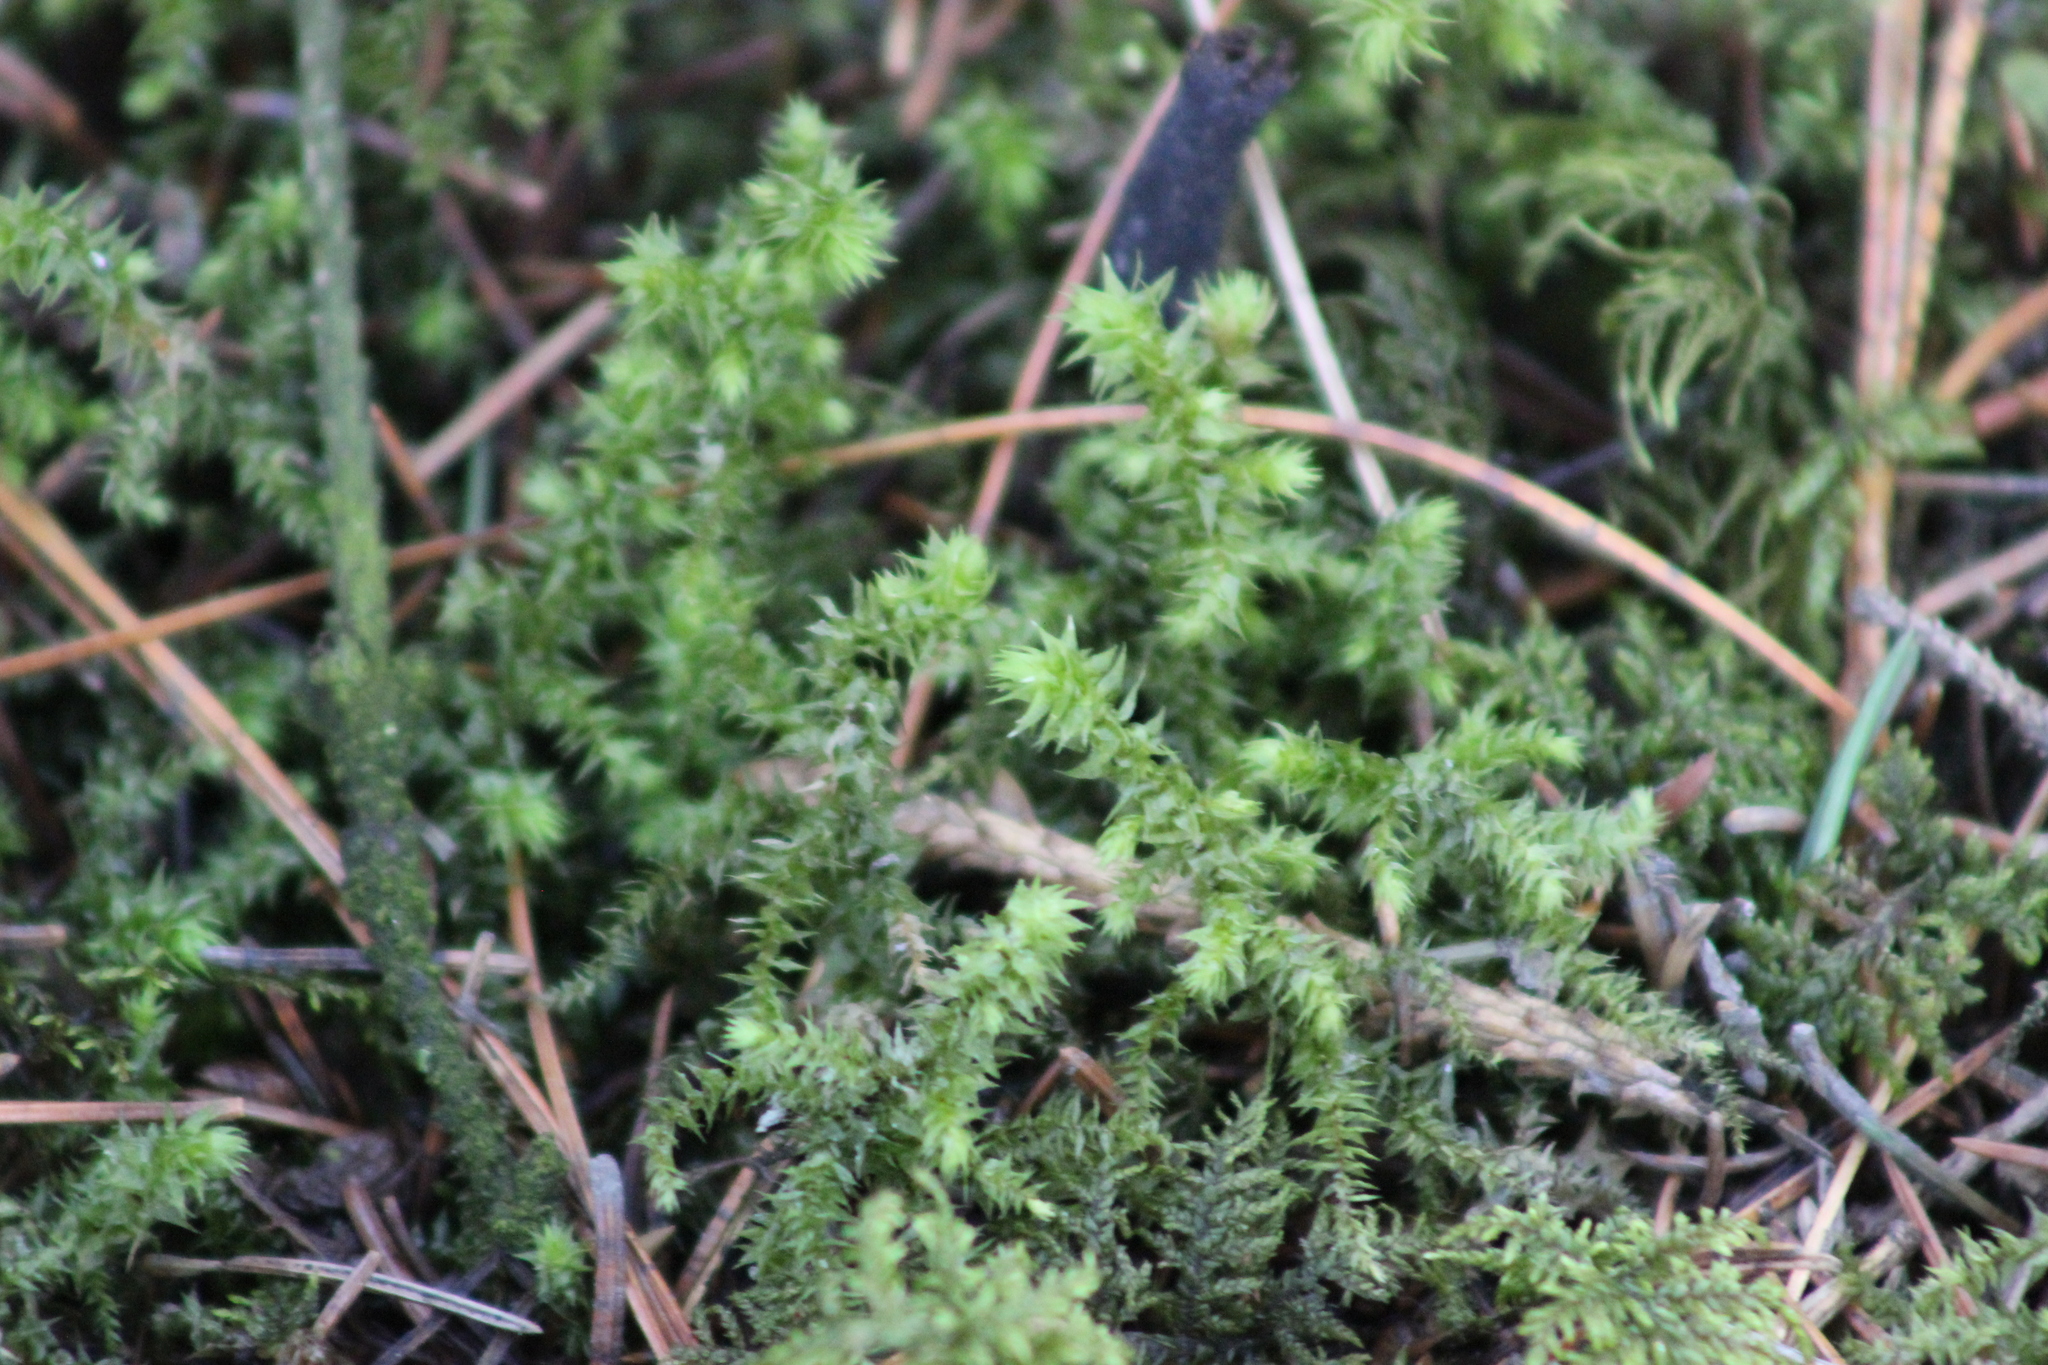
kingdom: Plantae
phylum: Bryophyta
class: Bryopsida
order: Hypnales
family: Hylocomiaceae
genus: Hylocomiadelphus
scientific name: Hylocomiadelphus triquetrus
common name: Rough goose neck moss
